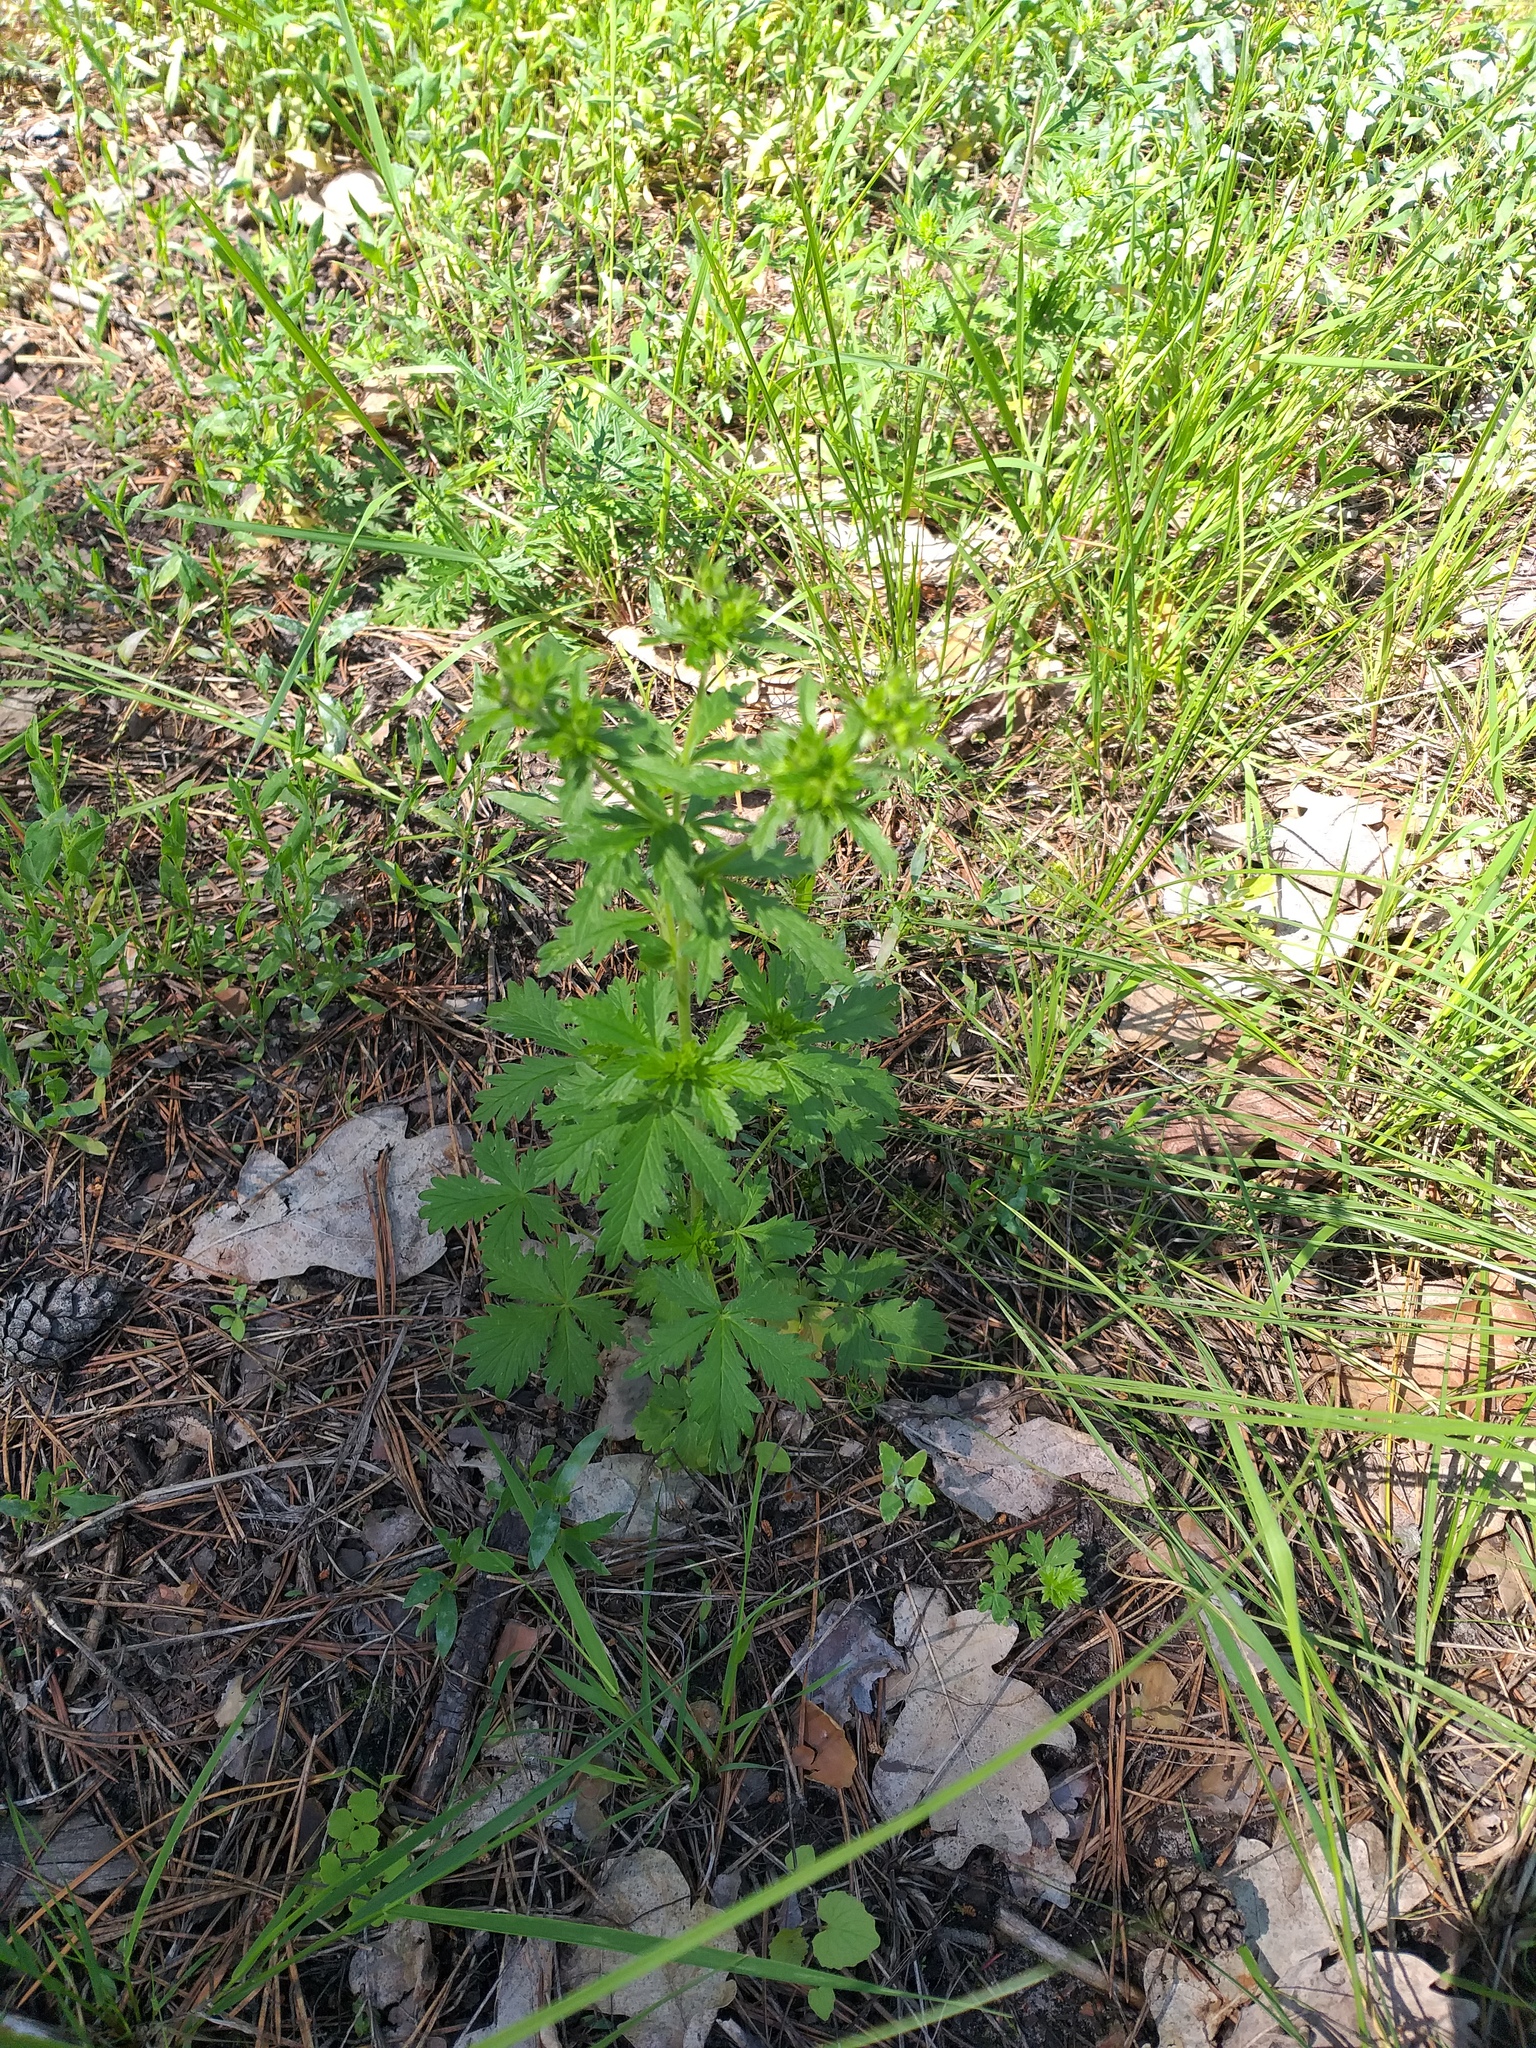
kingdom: Plantae
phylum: Tracheophyta
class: Magnoliopsida
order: Rosales
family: Rosaceae
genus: Potentilla
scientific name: Potentilla intermedia
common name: Downy cinquefoil
